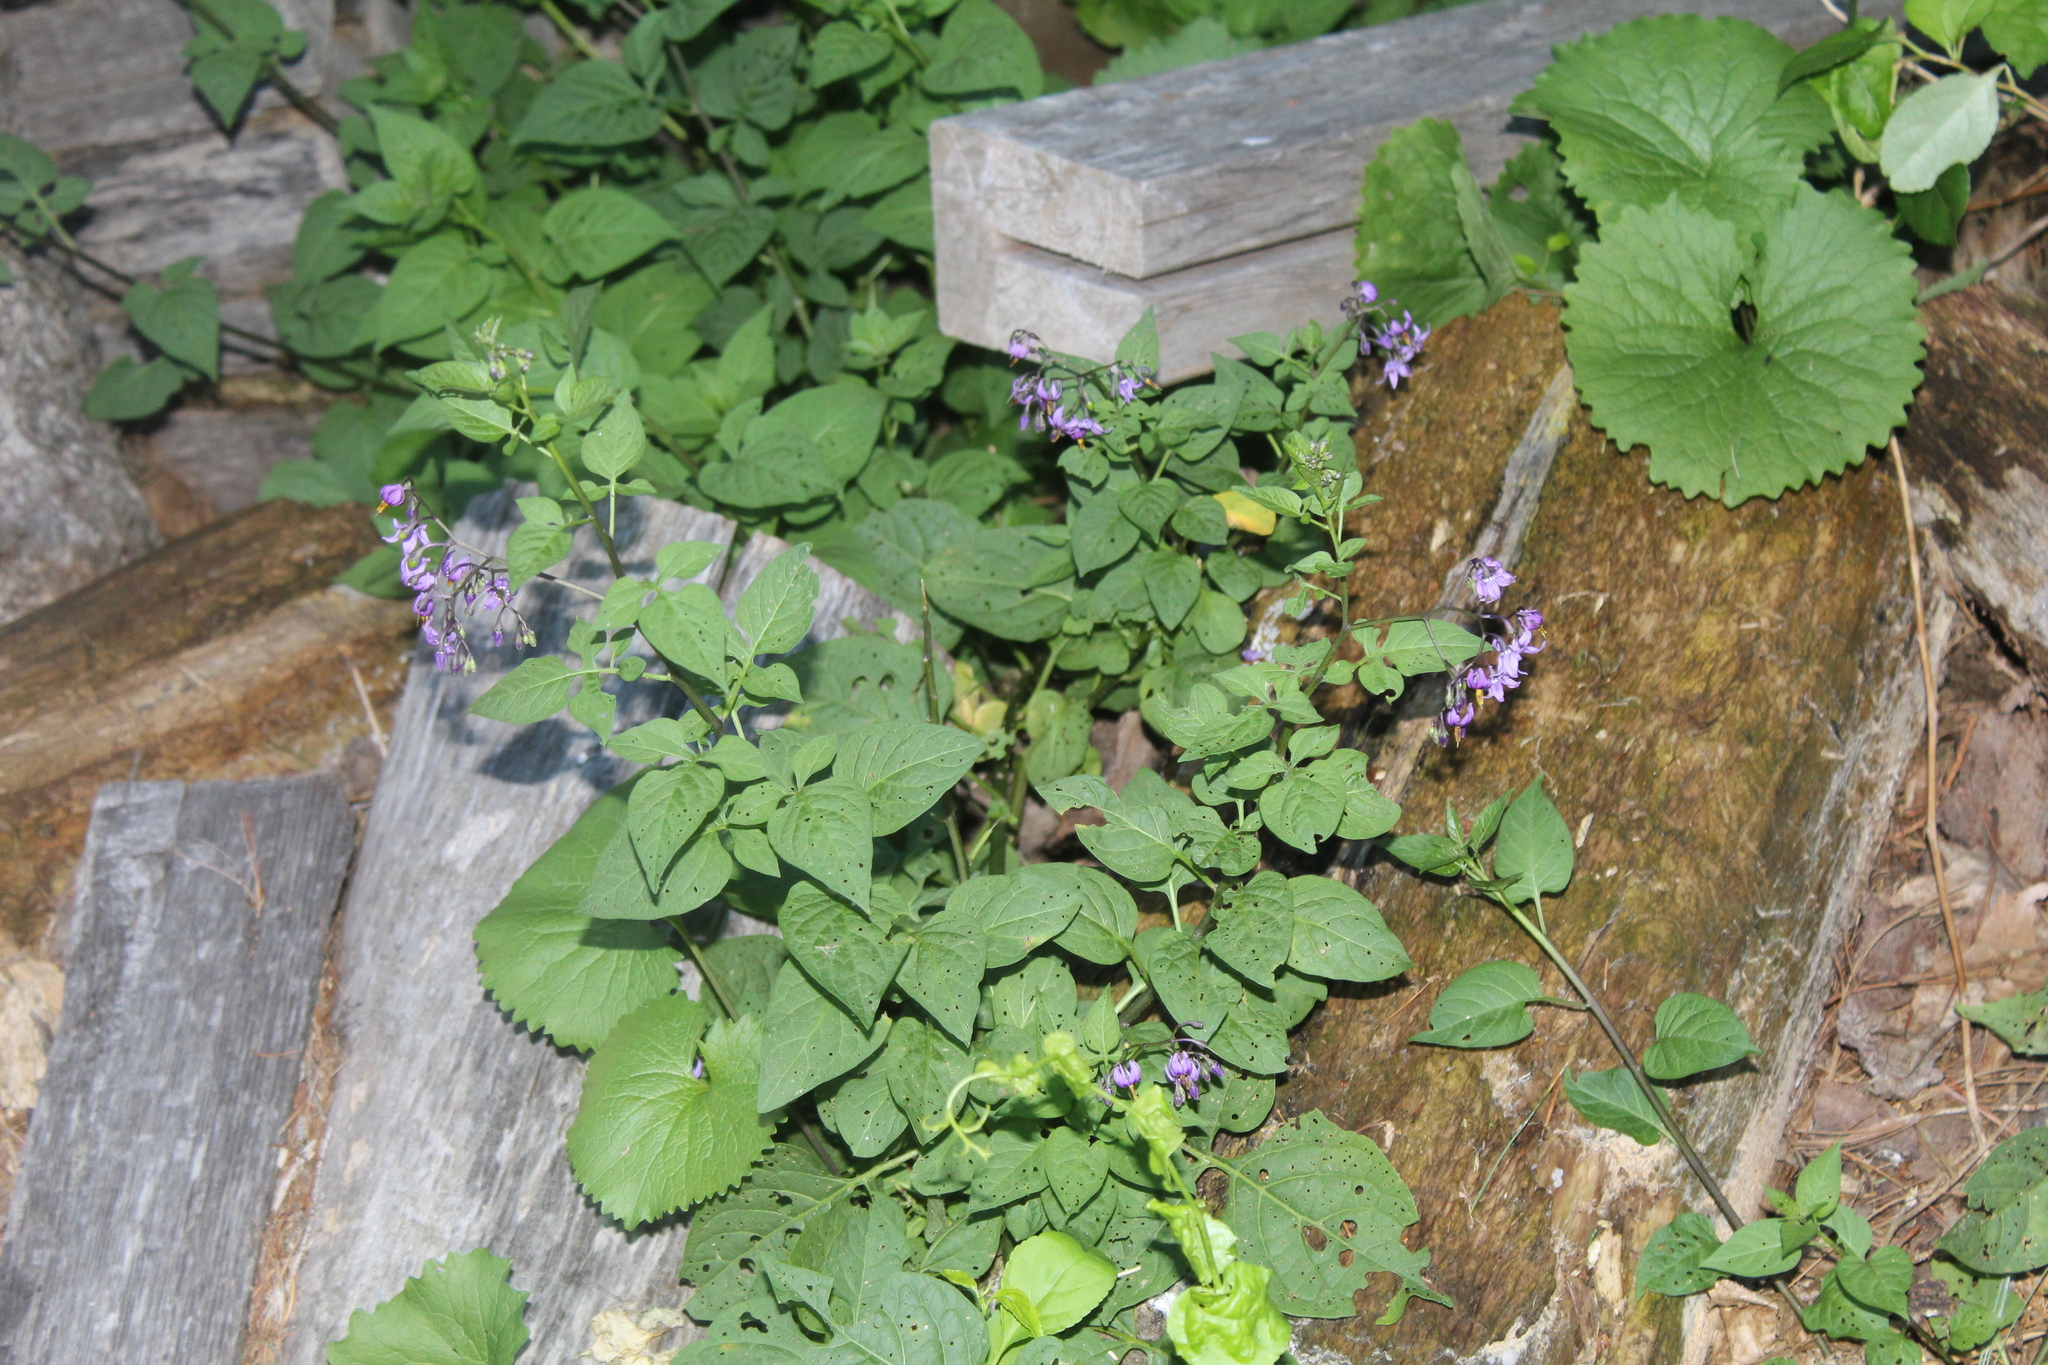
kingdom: Plantae
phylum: Tracheophyta
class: Magnoliopsida
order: Solanales
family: Solanaceae
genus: Solanum
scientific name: Solanum dulcamara
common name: Climbing nightshade
